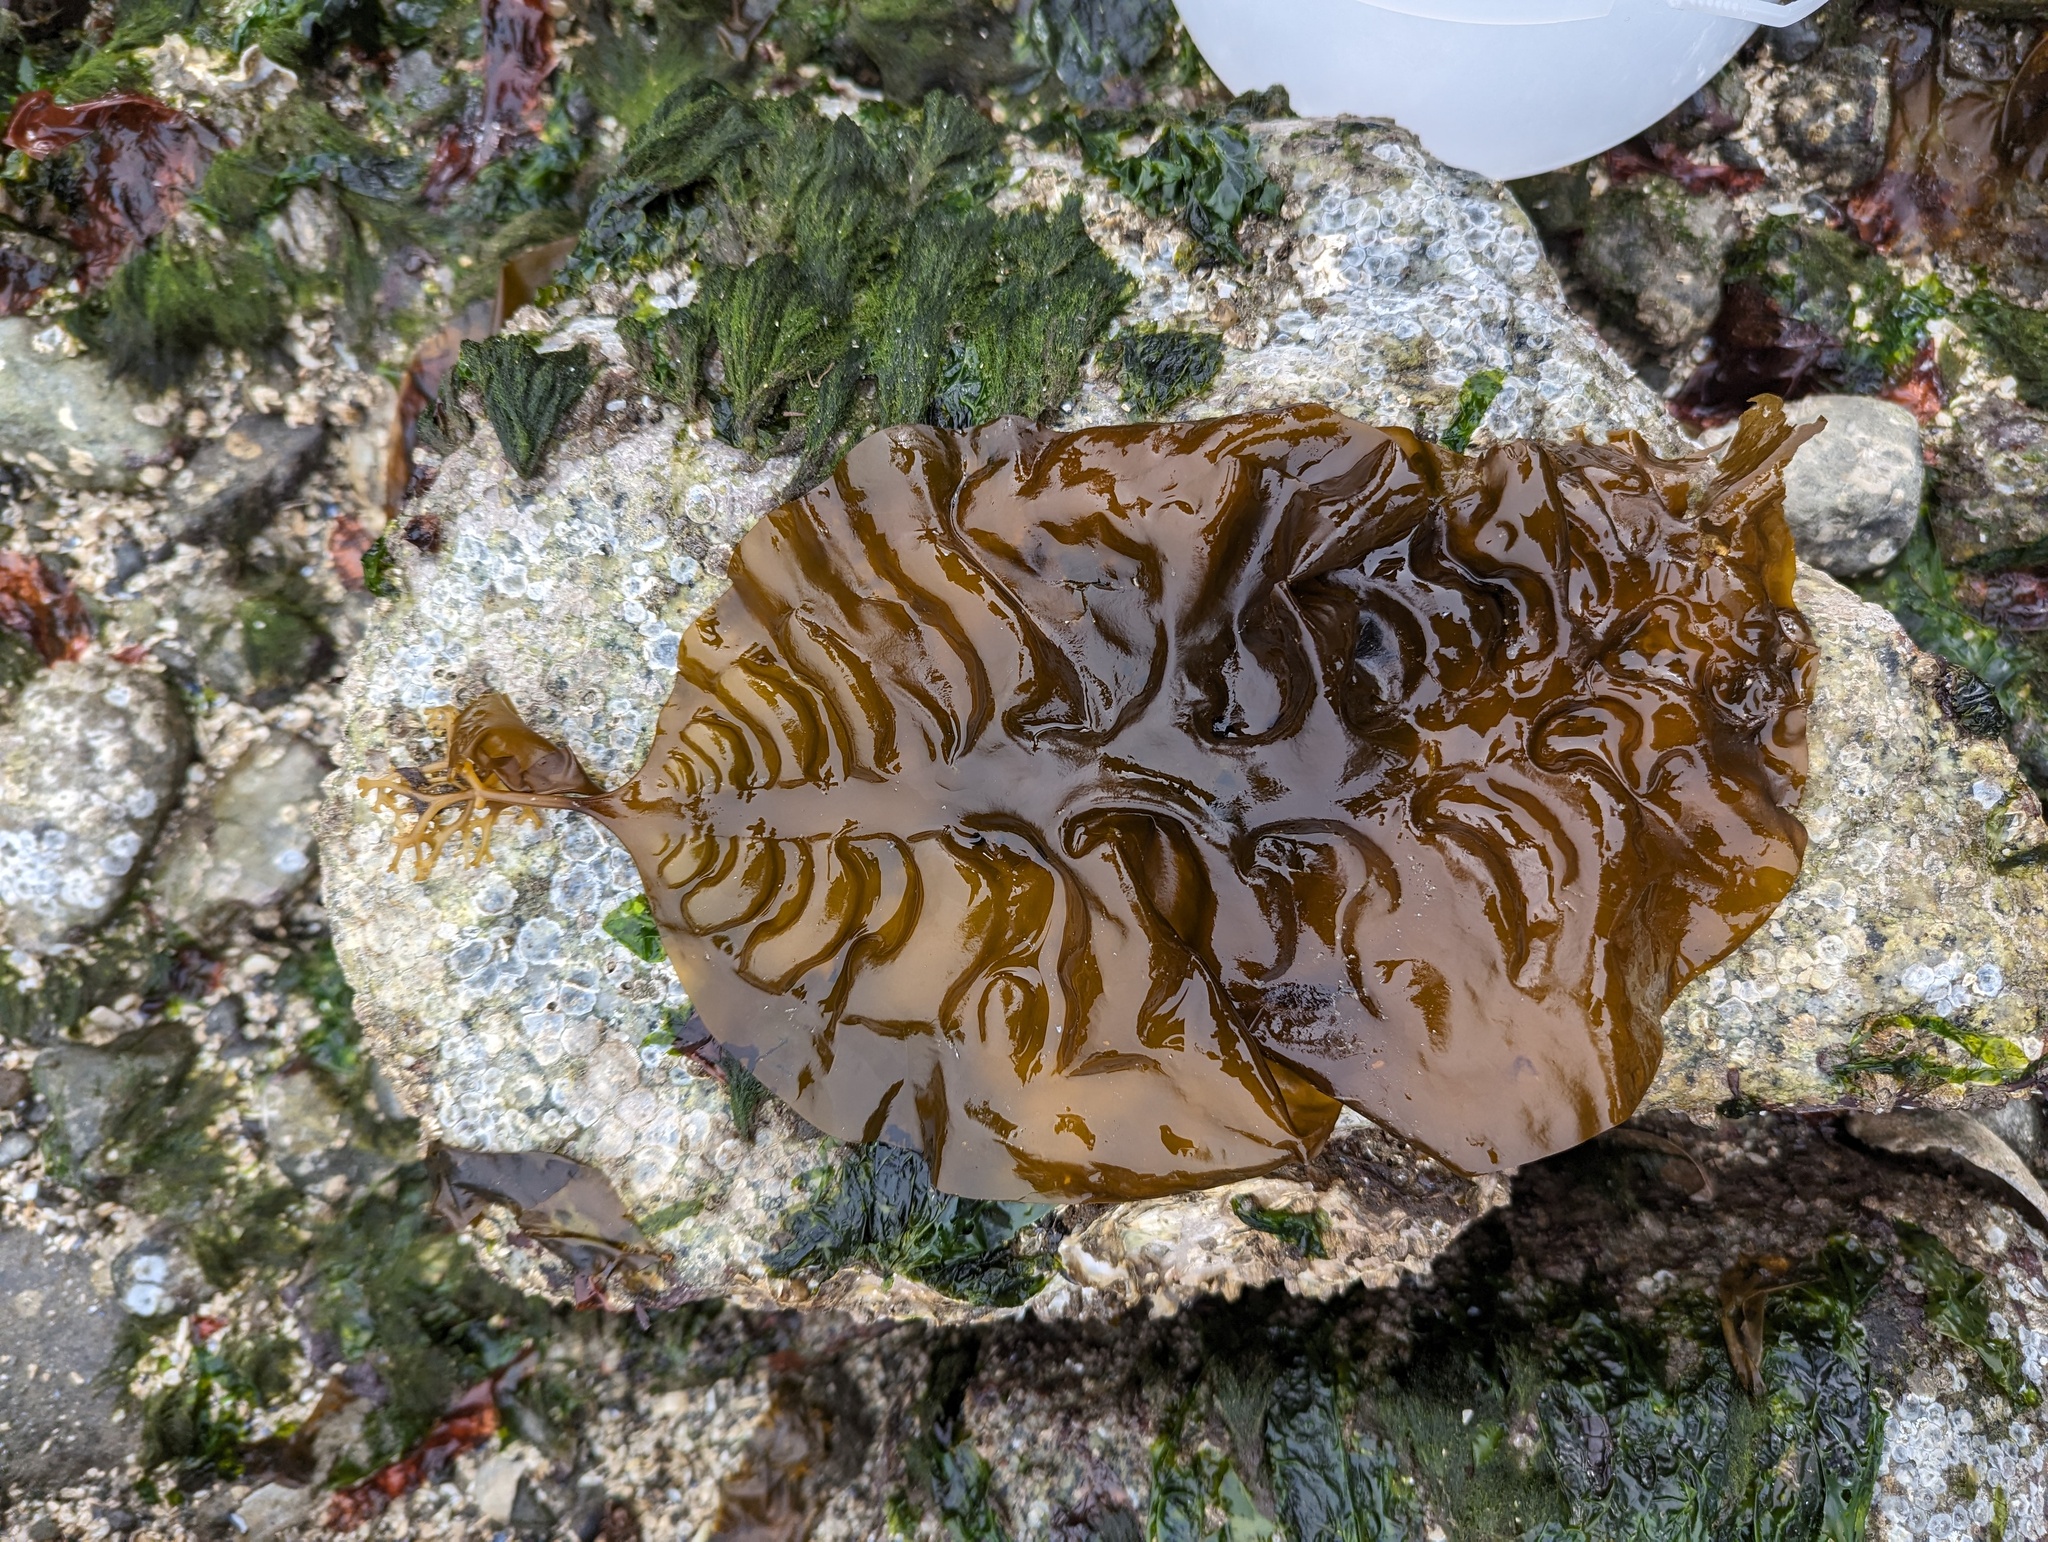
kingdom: Chromista
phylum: Ochrophyta
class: Phaeophyceae
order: Laminariales
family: Laminariaceae
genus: Saccharina
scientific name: Saccharina latissima
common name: Poor man's weather glass
